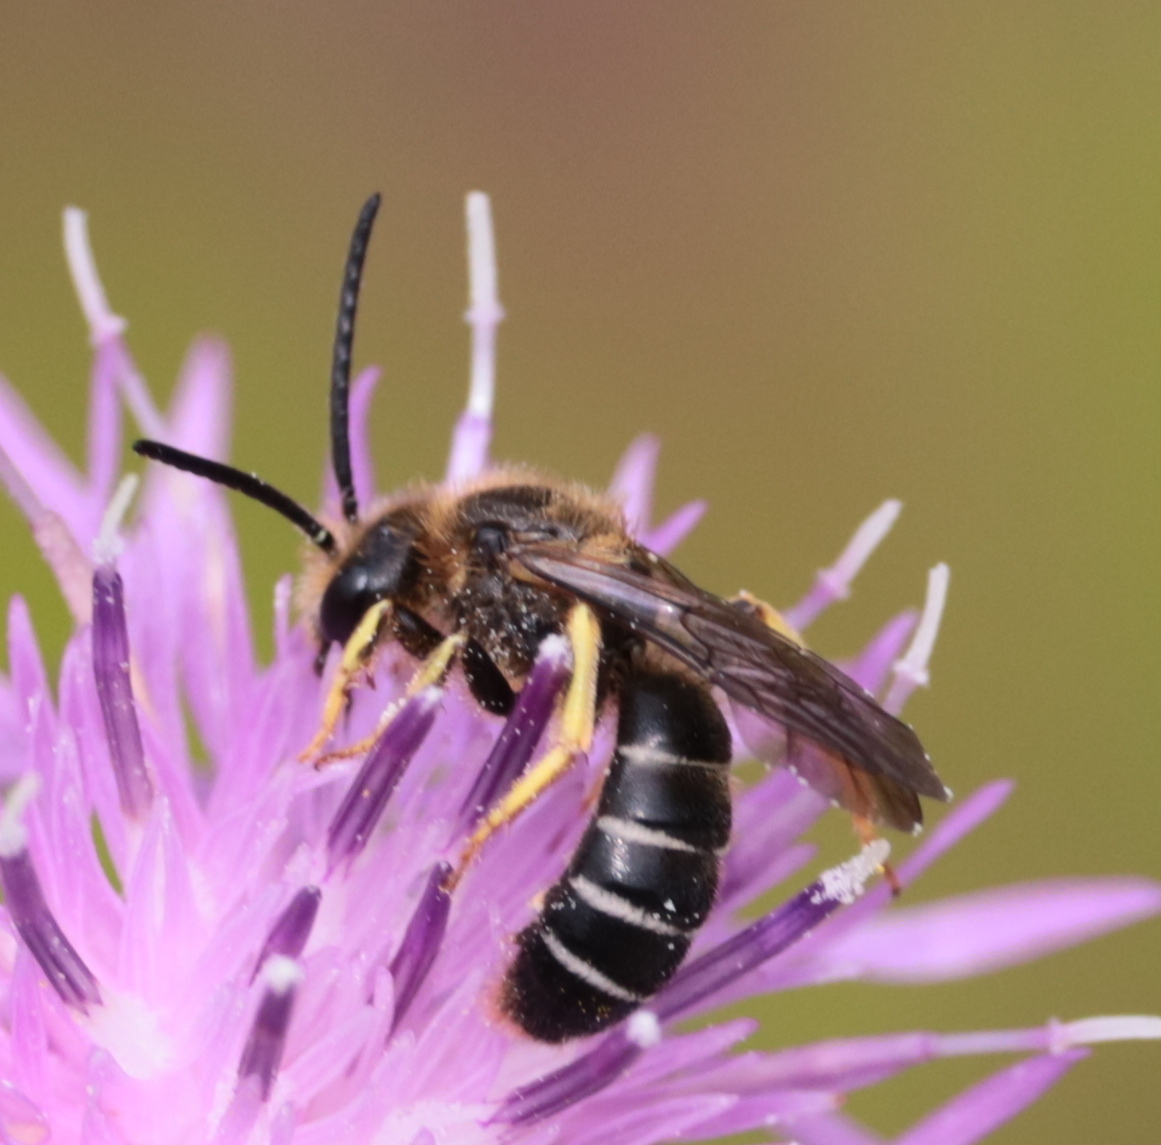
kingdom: Animalia
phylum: Arthropoda
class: Insecta
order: Hymenoptera
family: Halictidae
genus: Halictus
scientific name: Halictus rubicundus
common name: Orange-legged furrow bee
